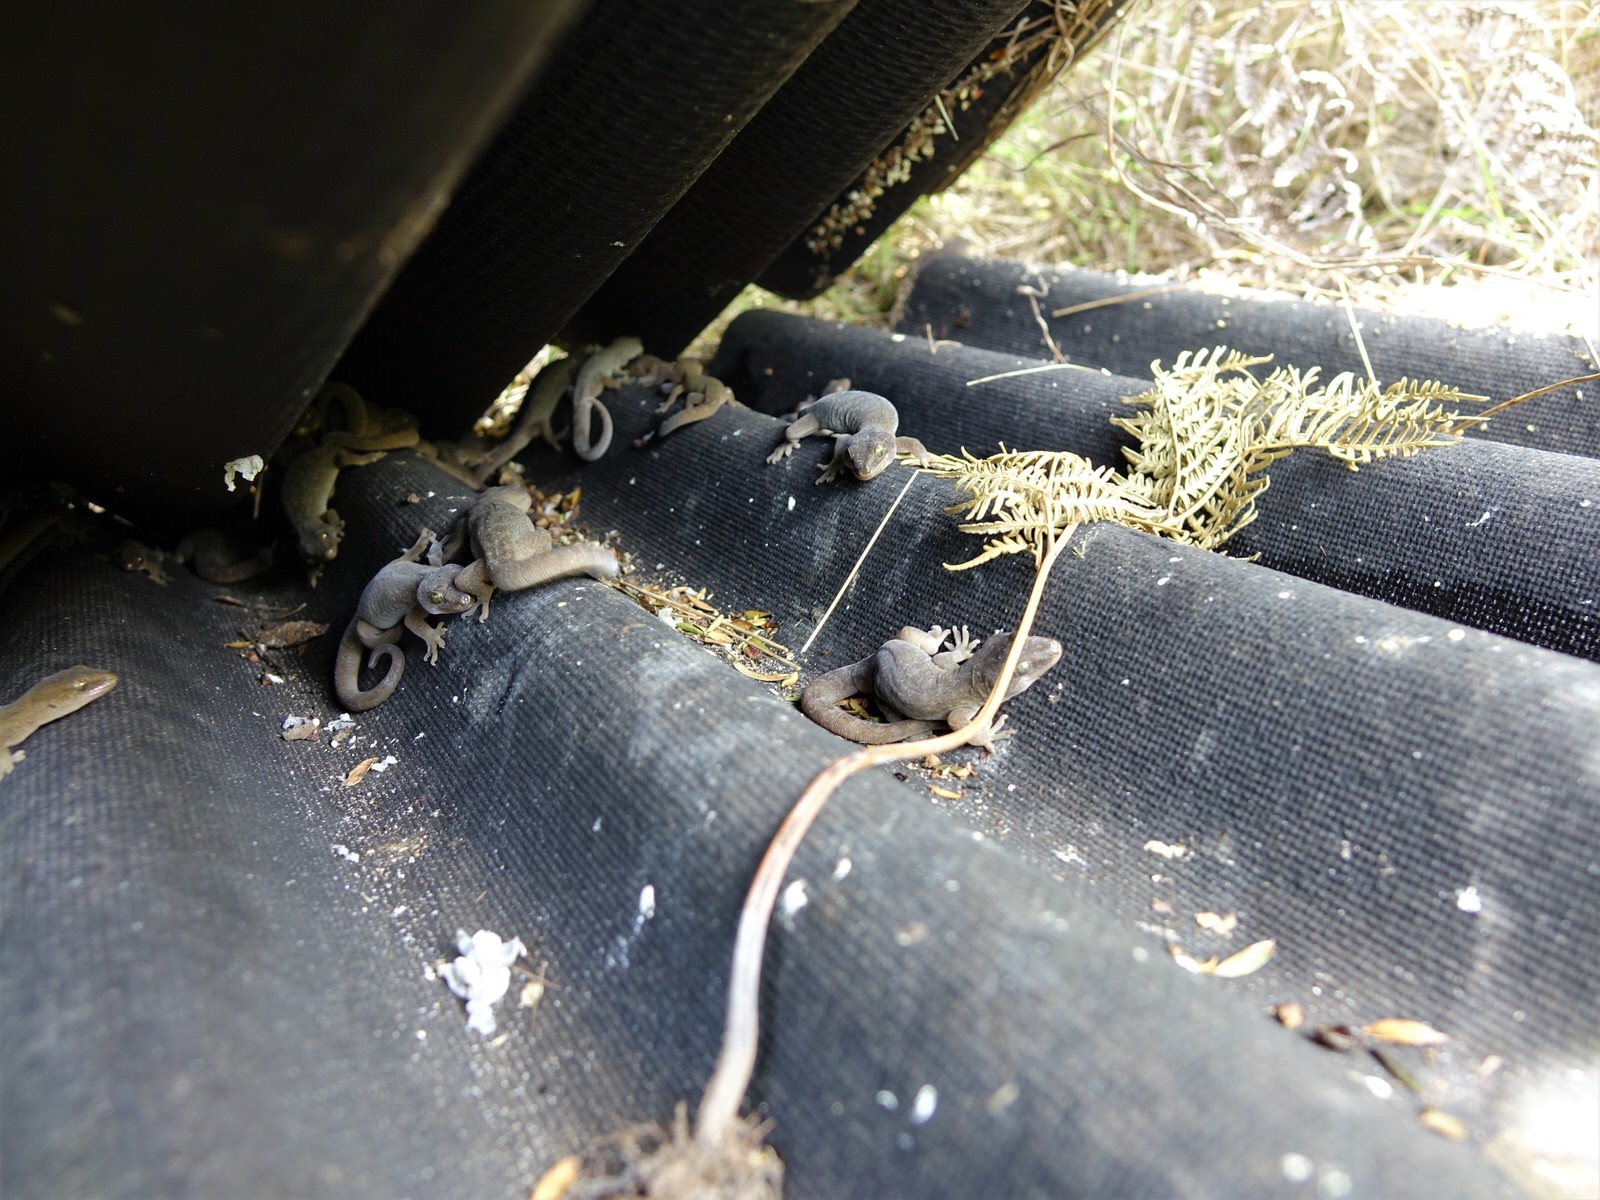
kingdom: Animalia
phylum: Chordata
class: Squamata
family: Diplodactylidae
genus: Woodworthia
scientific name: Woodworthia maculata
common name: Raukawa gecko
